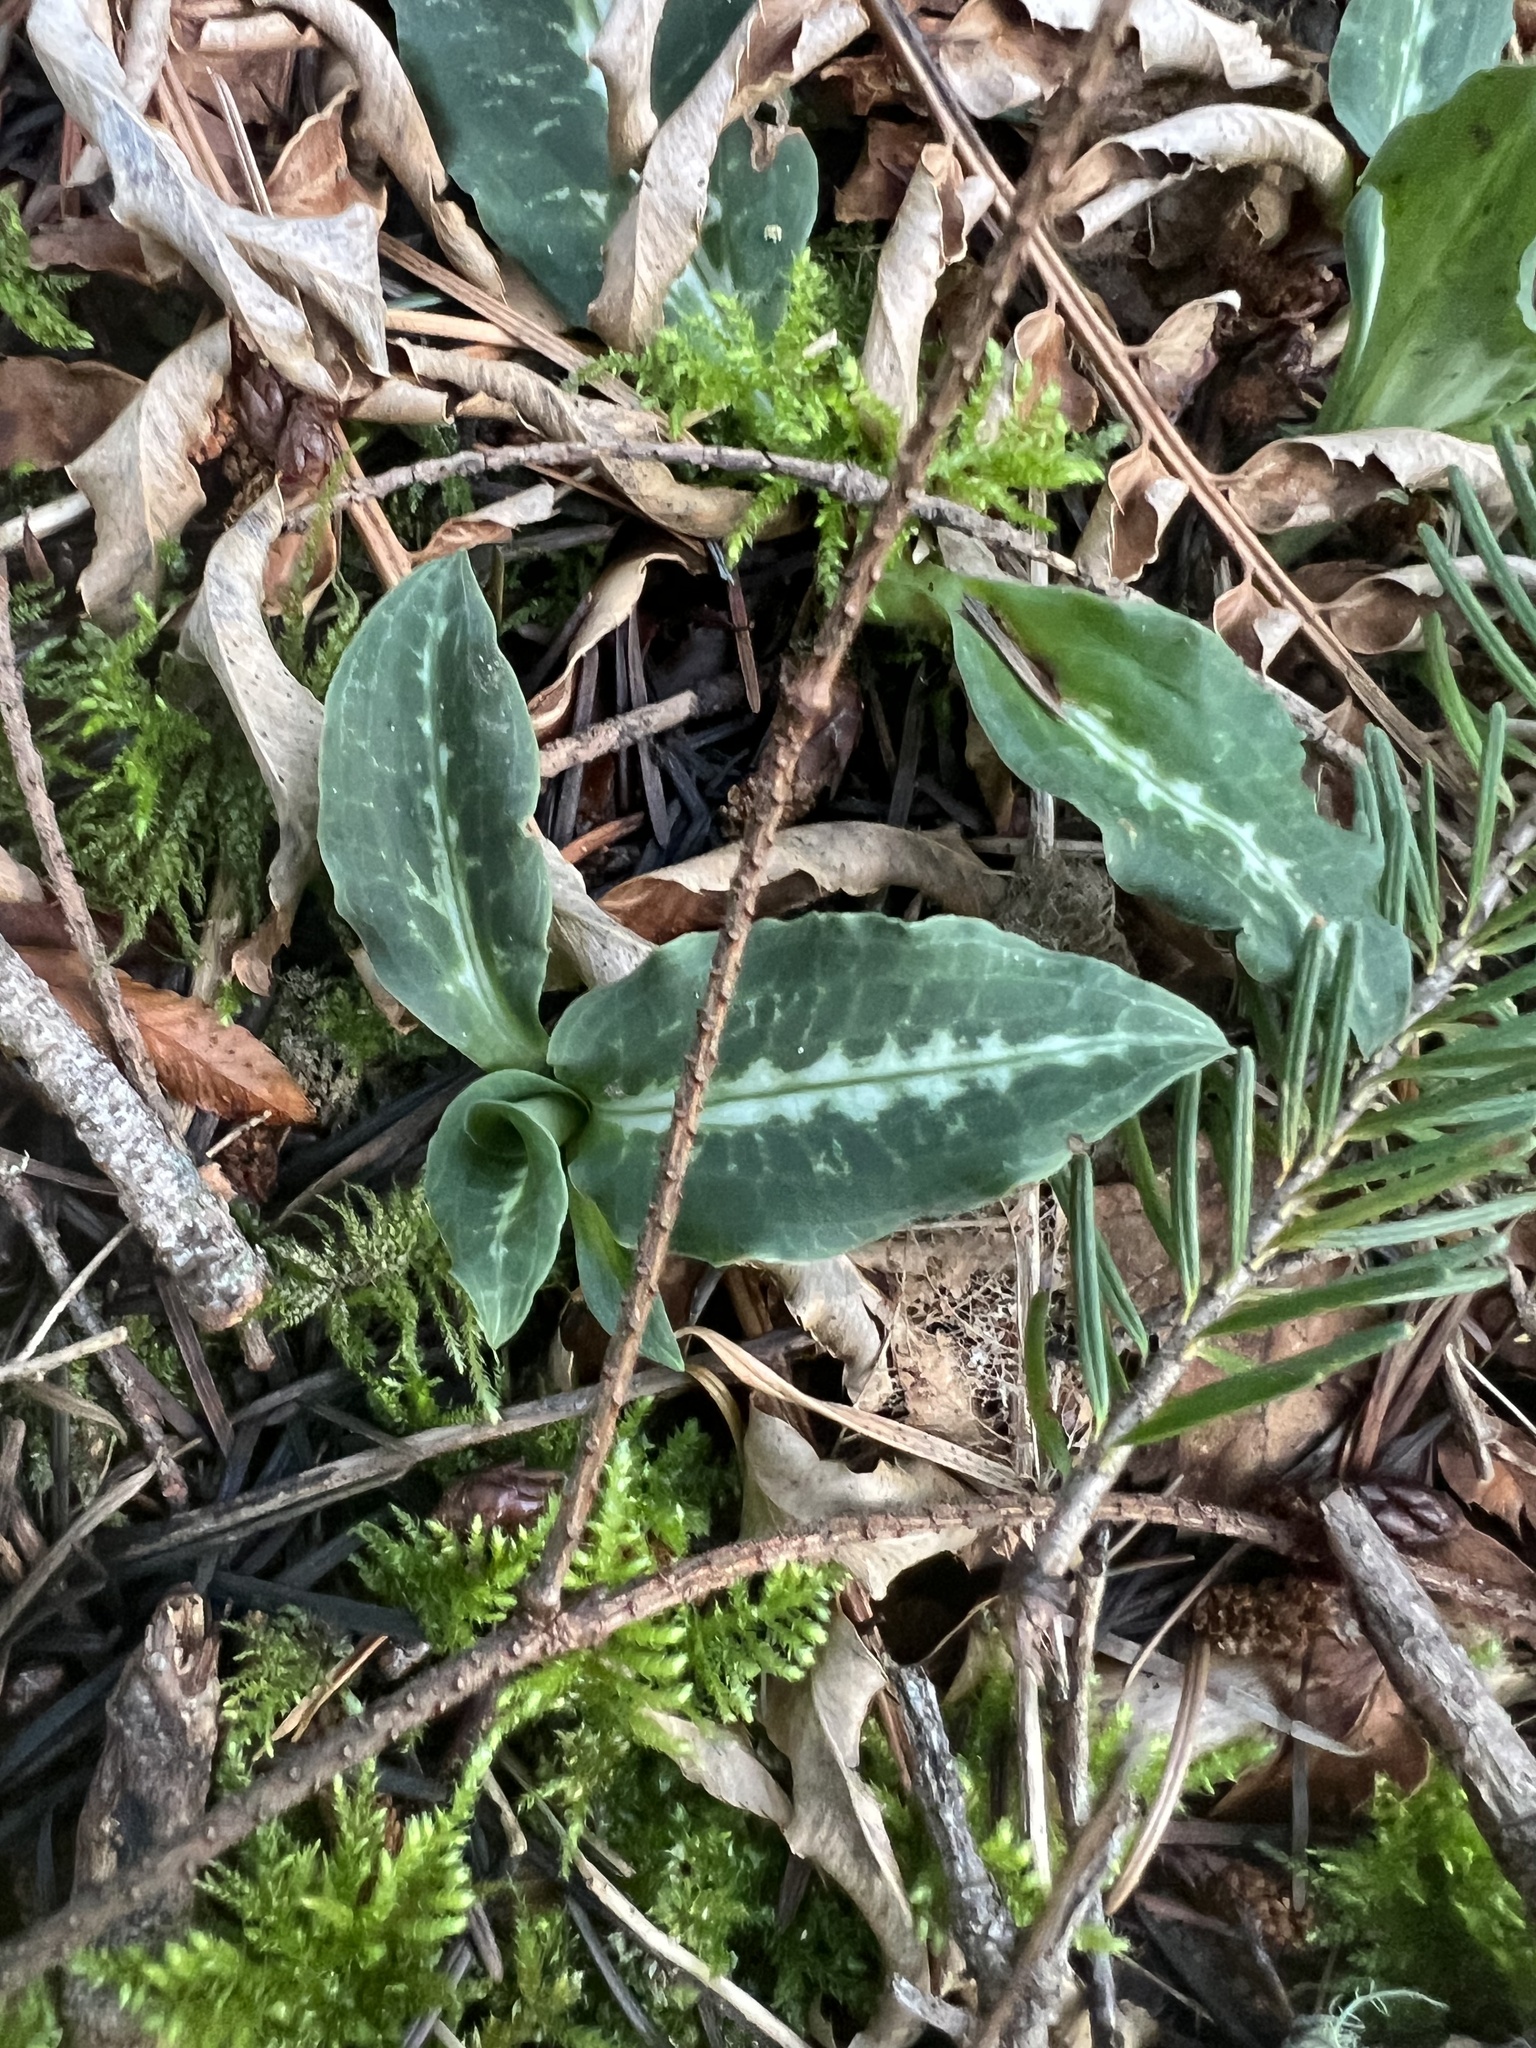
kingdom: Plantae
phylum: Tracheophyta
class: Liliopsida
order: Asparagales
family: Orchidaceae
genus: Goodyera
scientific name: Goodyera oblongifolia
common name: Giant rattlesnake-plantain
